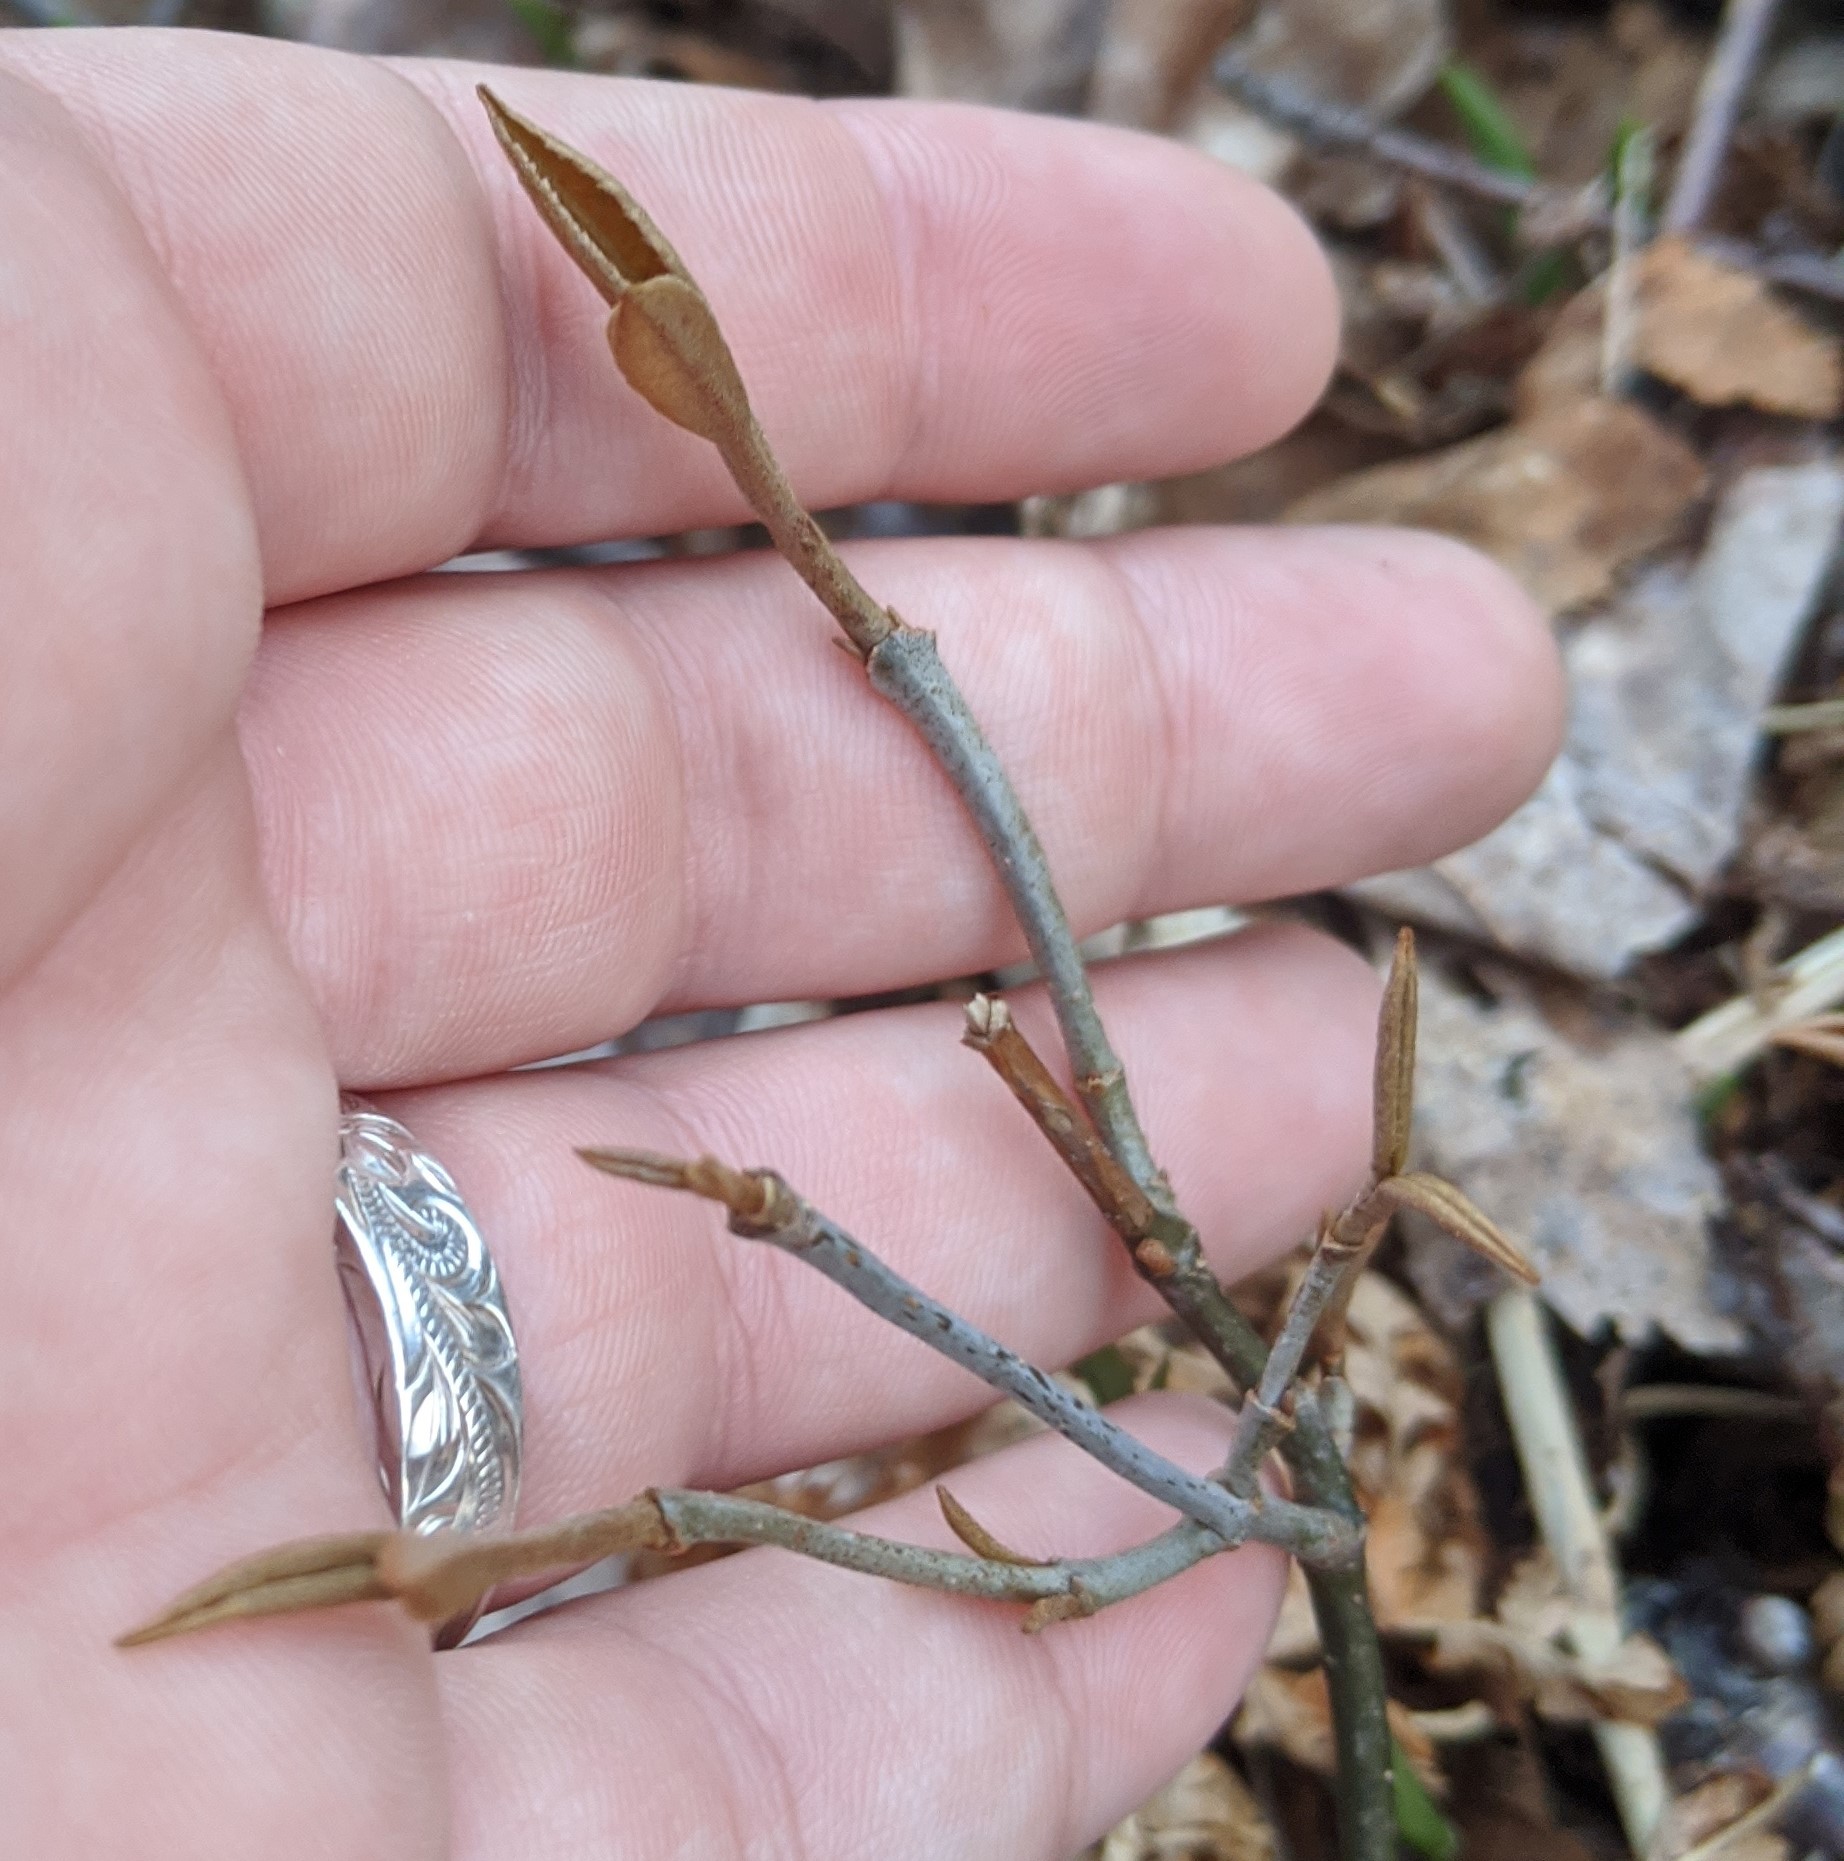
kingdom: Plantae
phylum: Tracheophyta
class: Magnoliopsida
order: Dipsacales
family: Viburnaceae
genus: Viburnum
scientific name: Viburnum cassinoides
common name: Swamp haw
